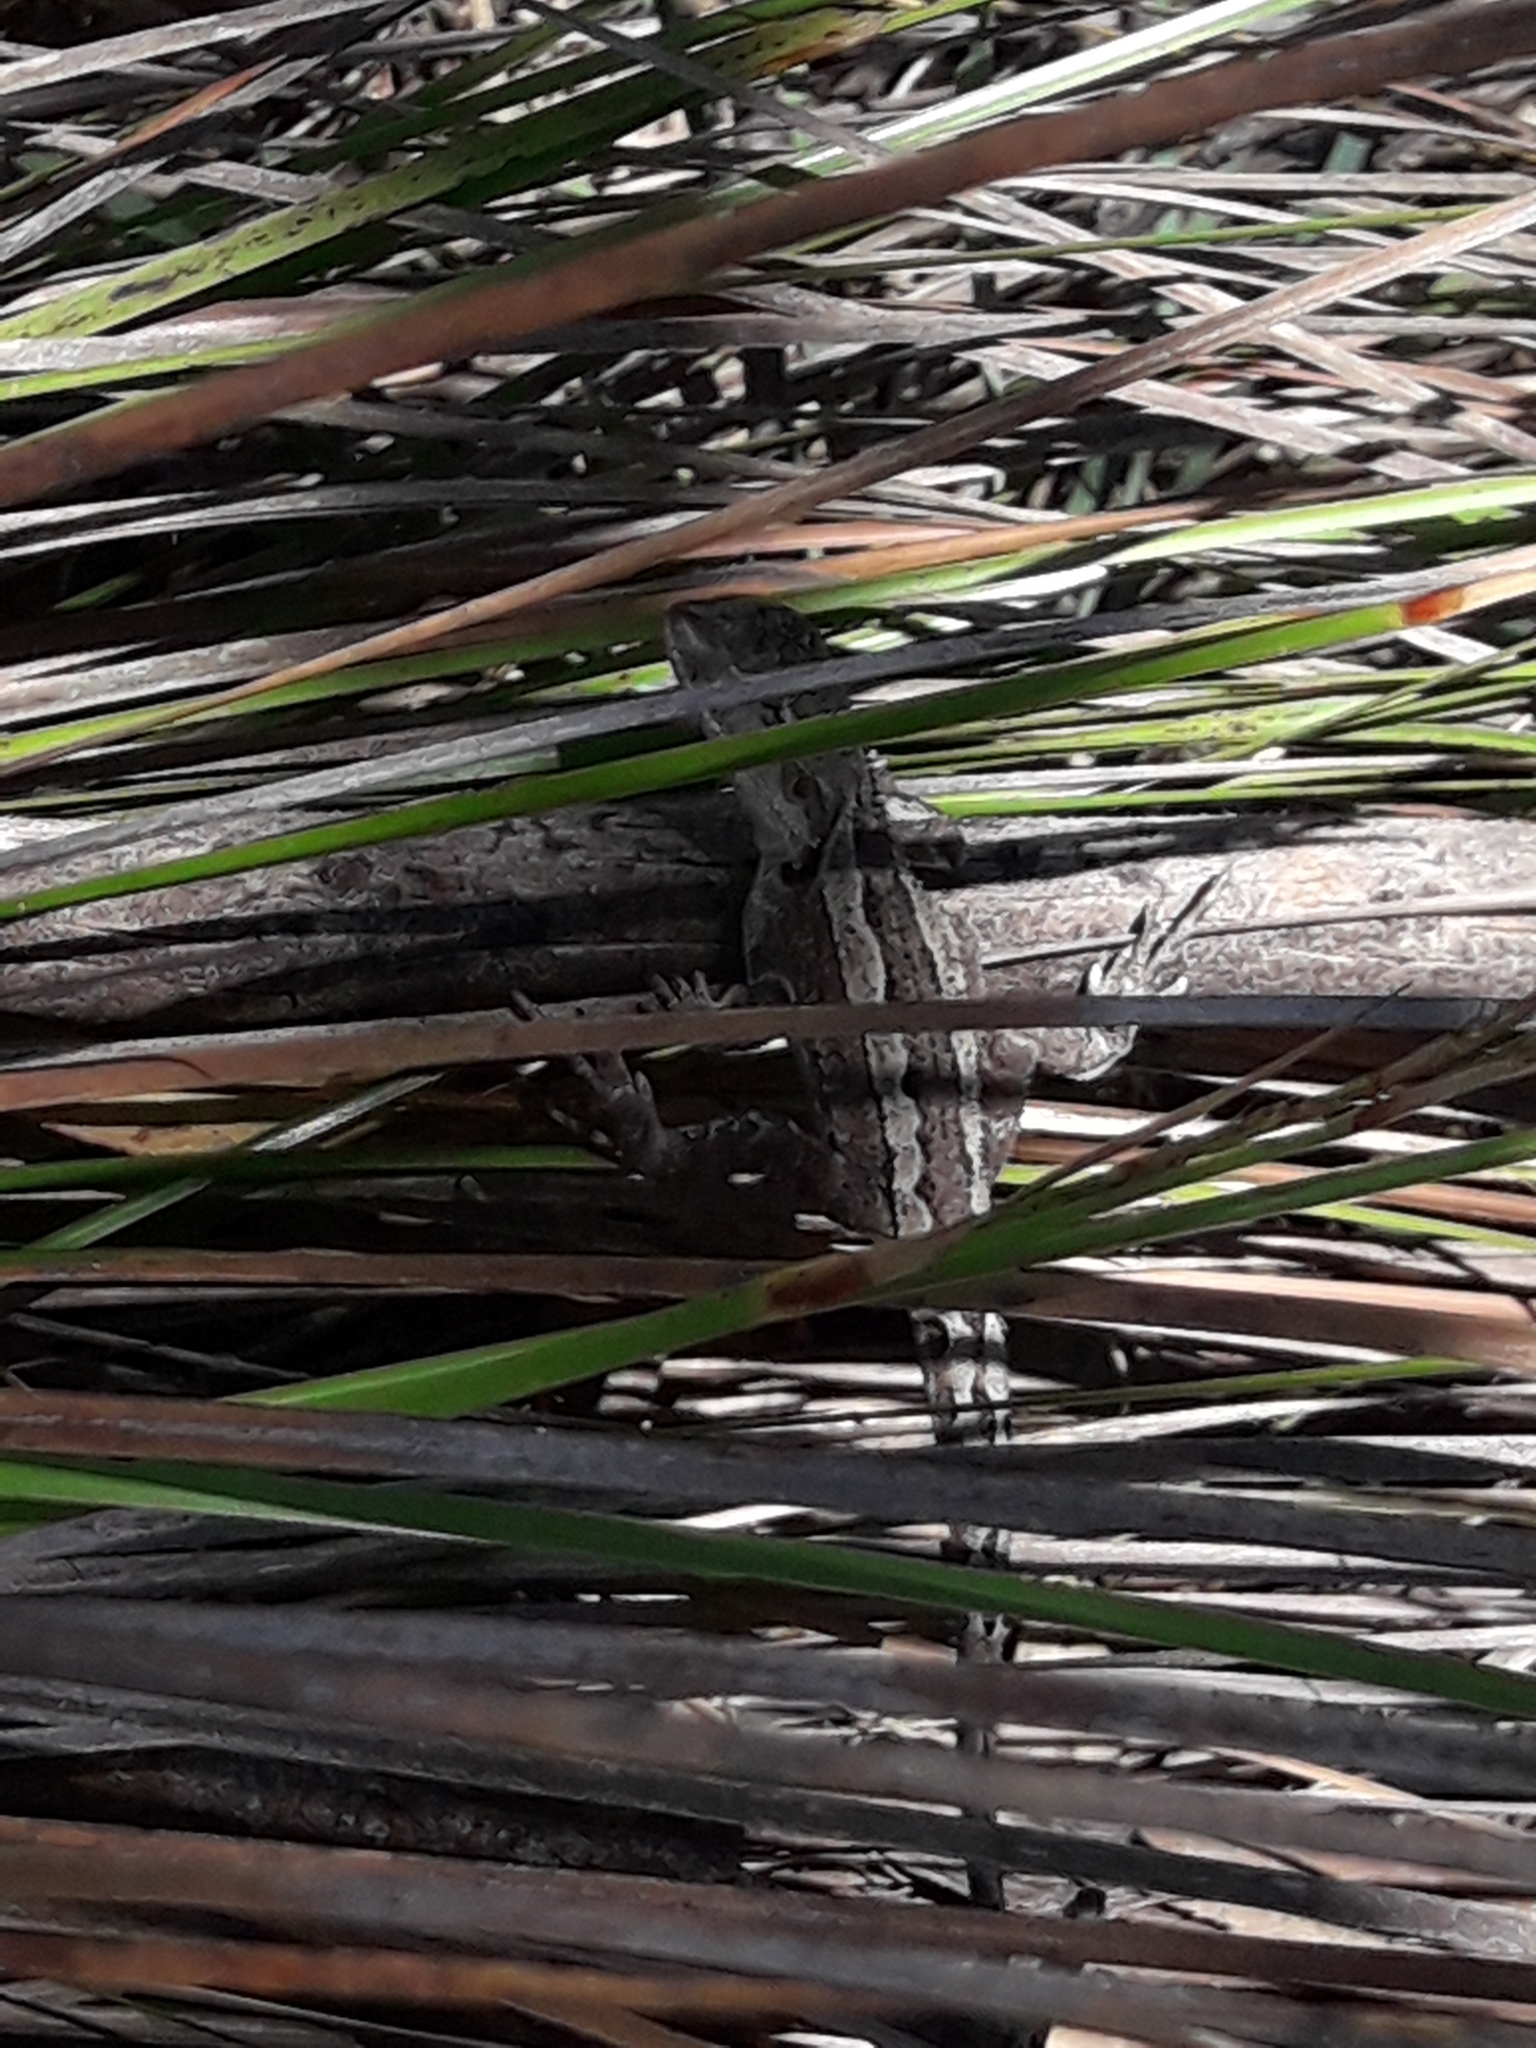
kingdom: Animalia
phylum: Chordata
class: Squamata
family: Agamidae
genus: Amphibolurus
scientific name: Amphibolurus muricatus
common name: Jacky lizard
